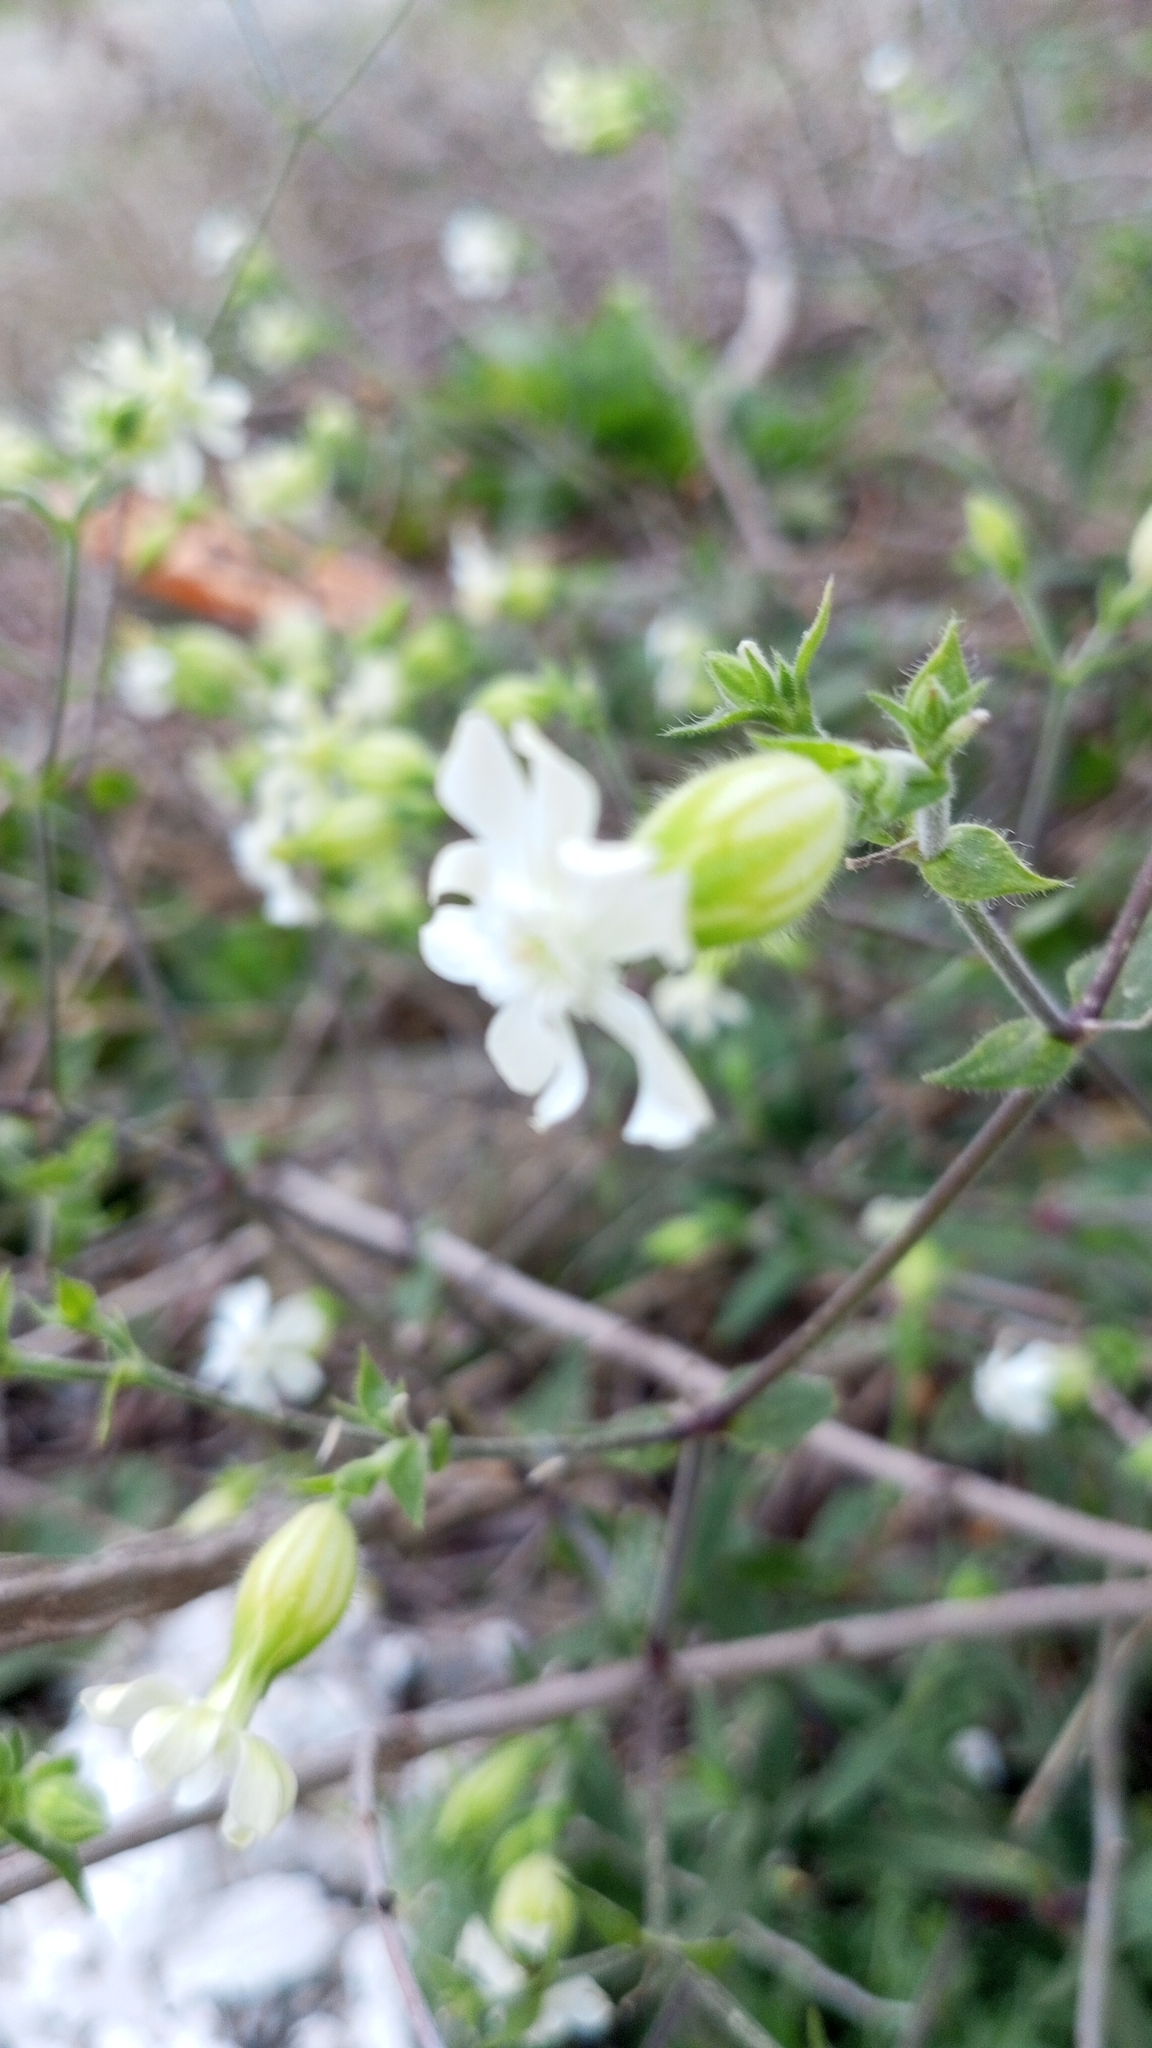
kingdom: Plantae
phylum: Tracheophyta
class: Magnoliopsida
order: Caryophyllales
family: Caryophyllaceae
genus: Silene
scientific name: Silene latifolia
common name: White campion
